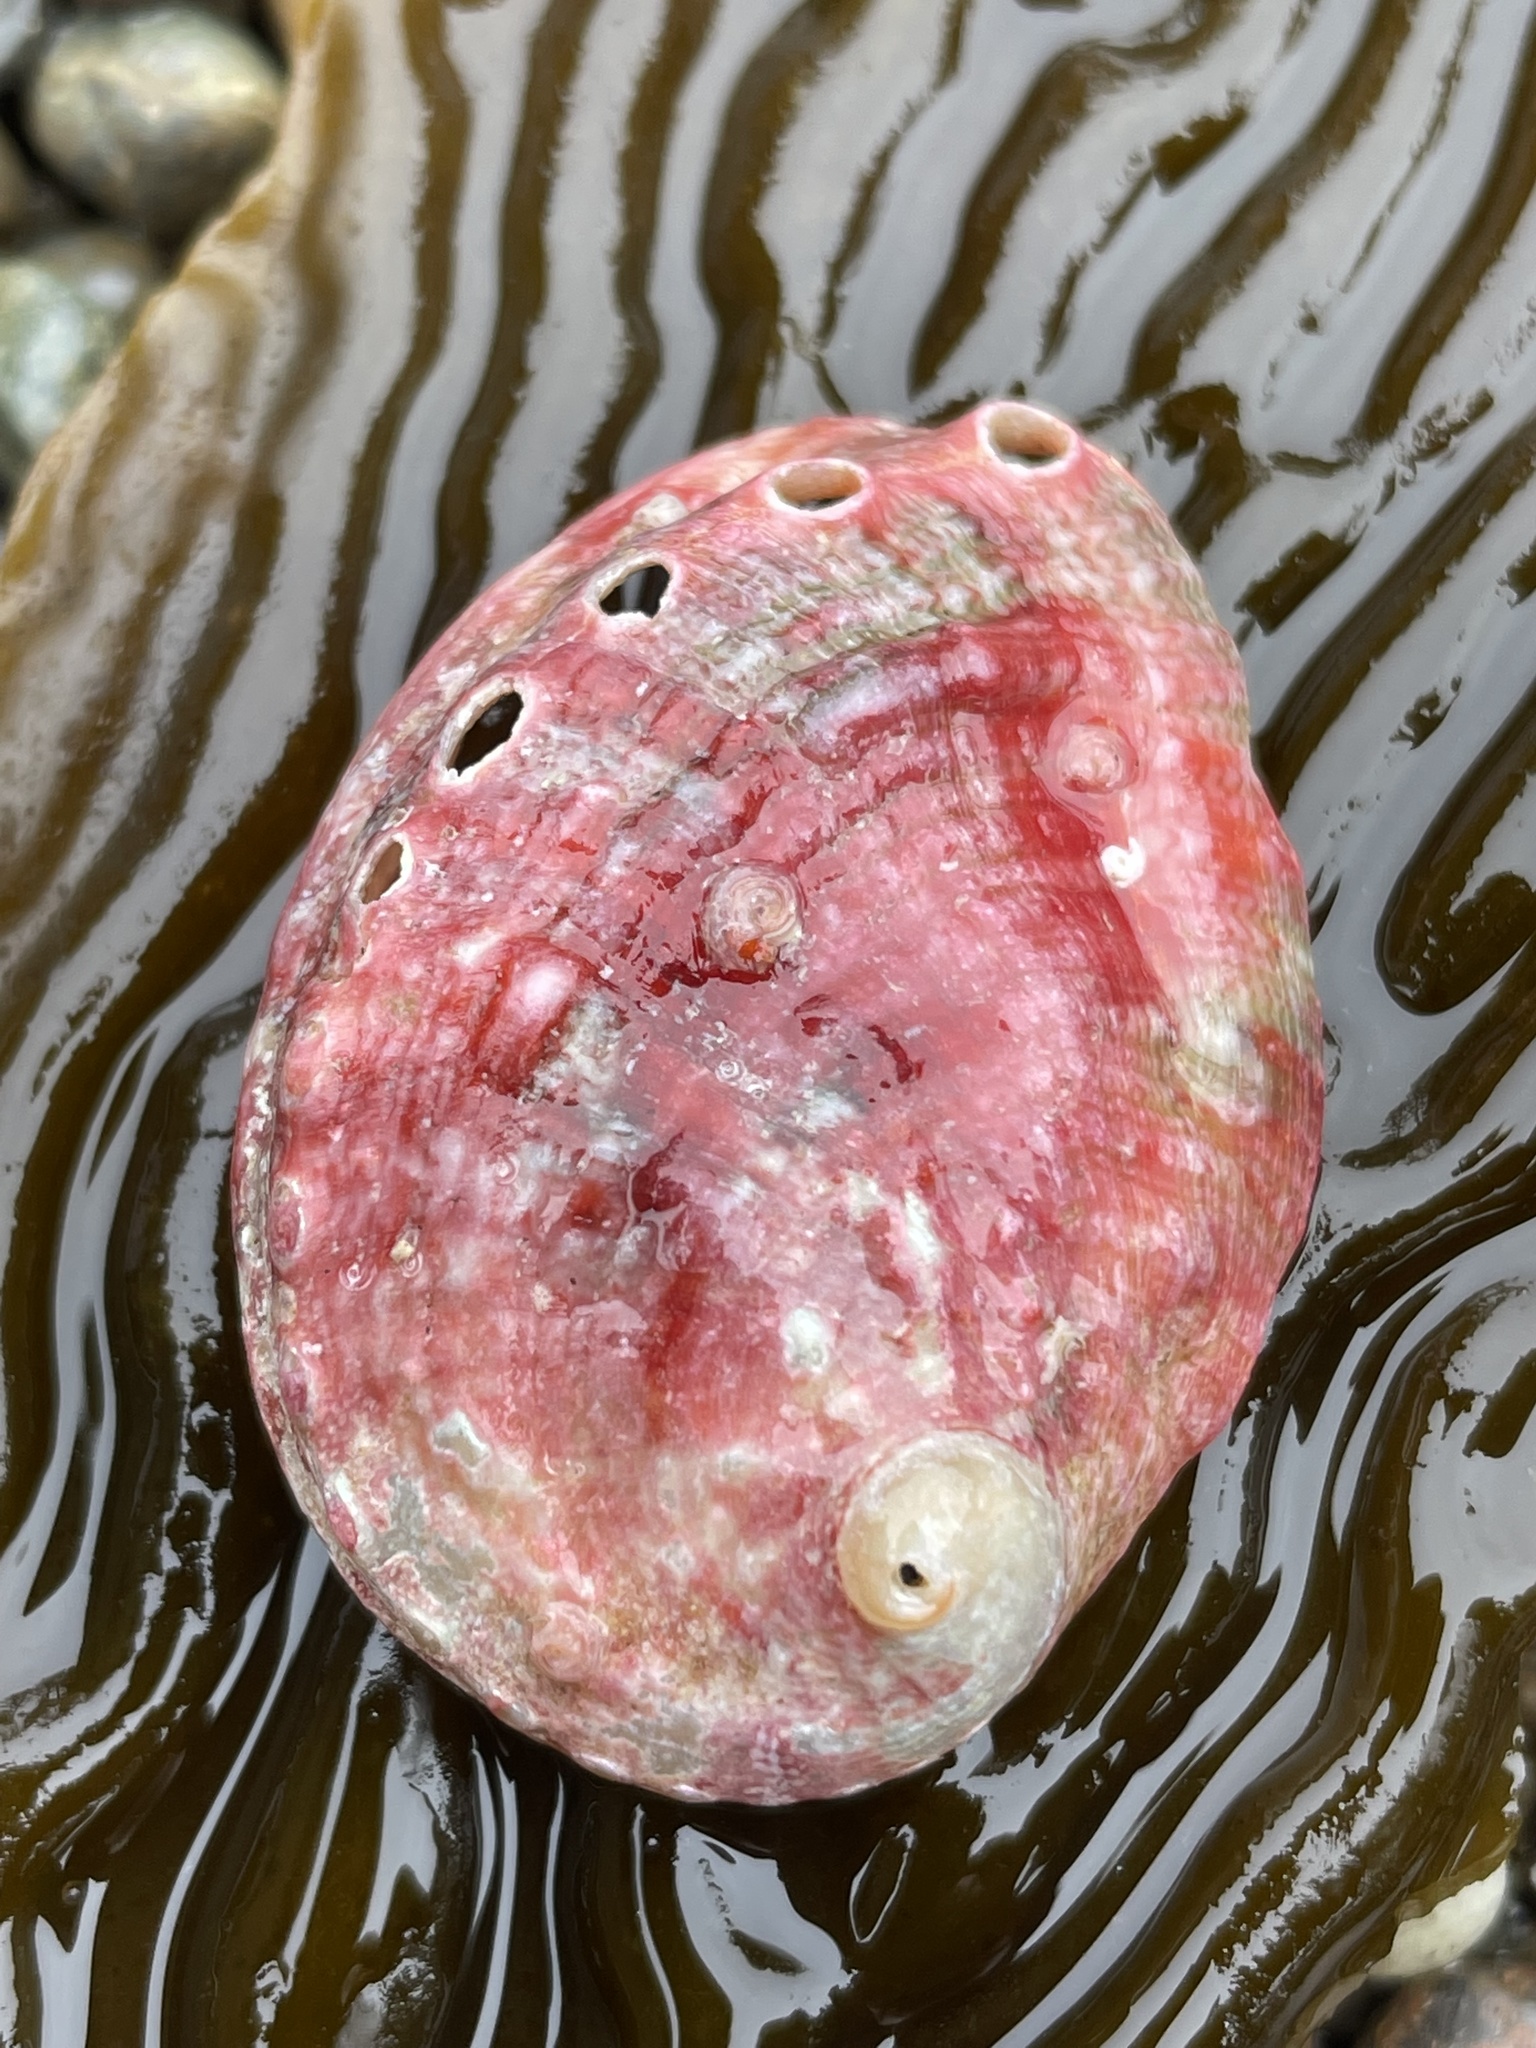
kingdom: Animalia
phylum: Mollusca
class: Gastropoda
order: Lepetellida
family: Haliotidae
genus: Haliotis
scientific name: Haliotis kamtschatkana
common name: Pinto abalone
